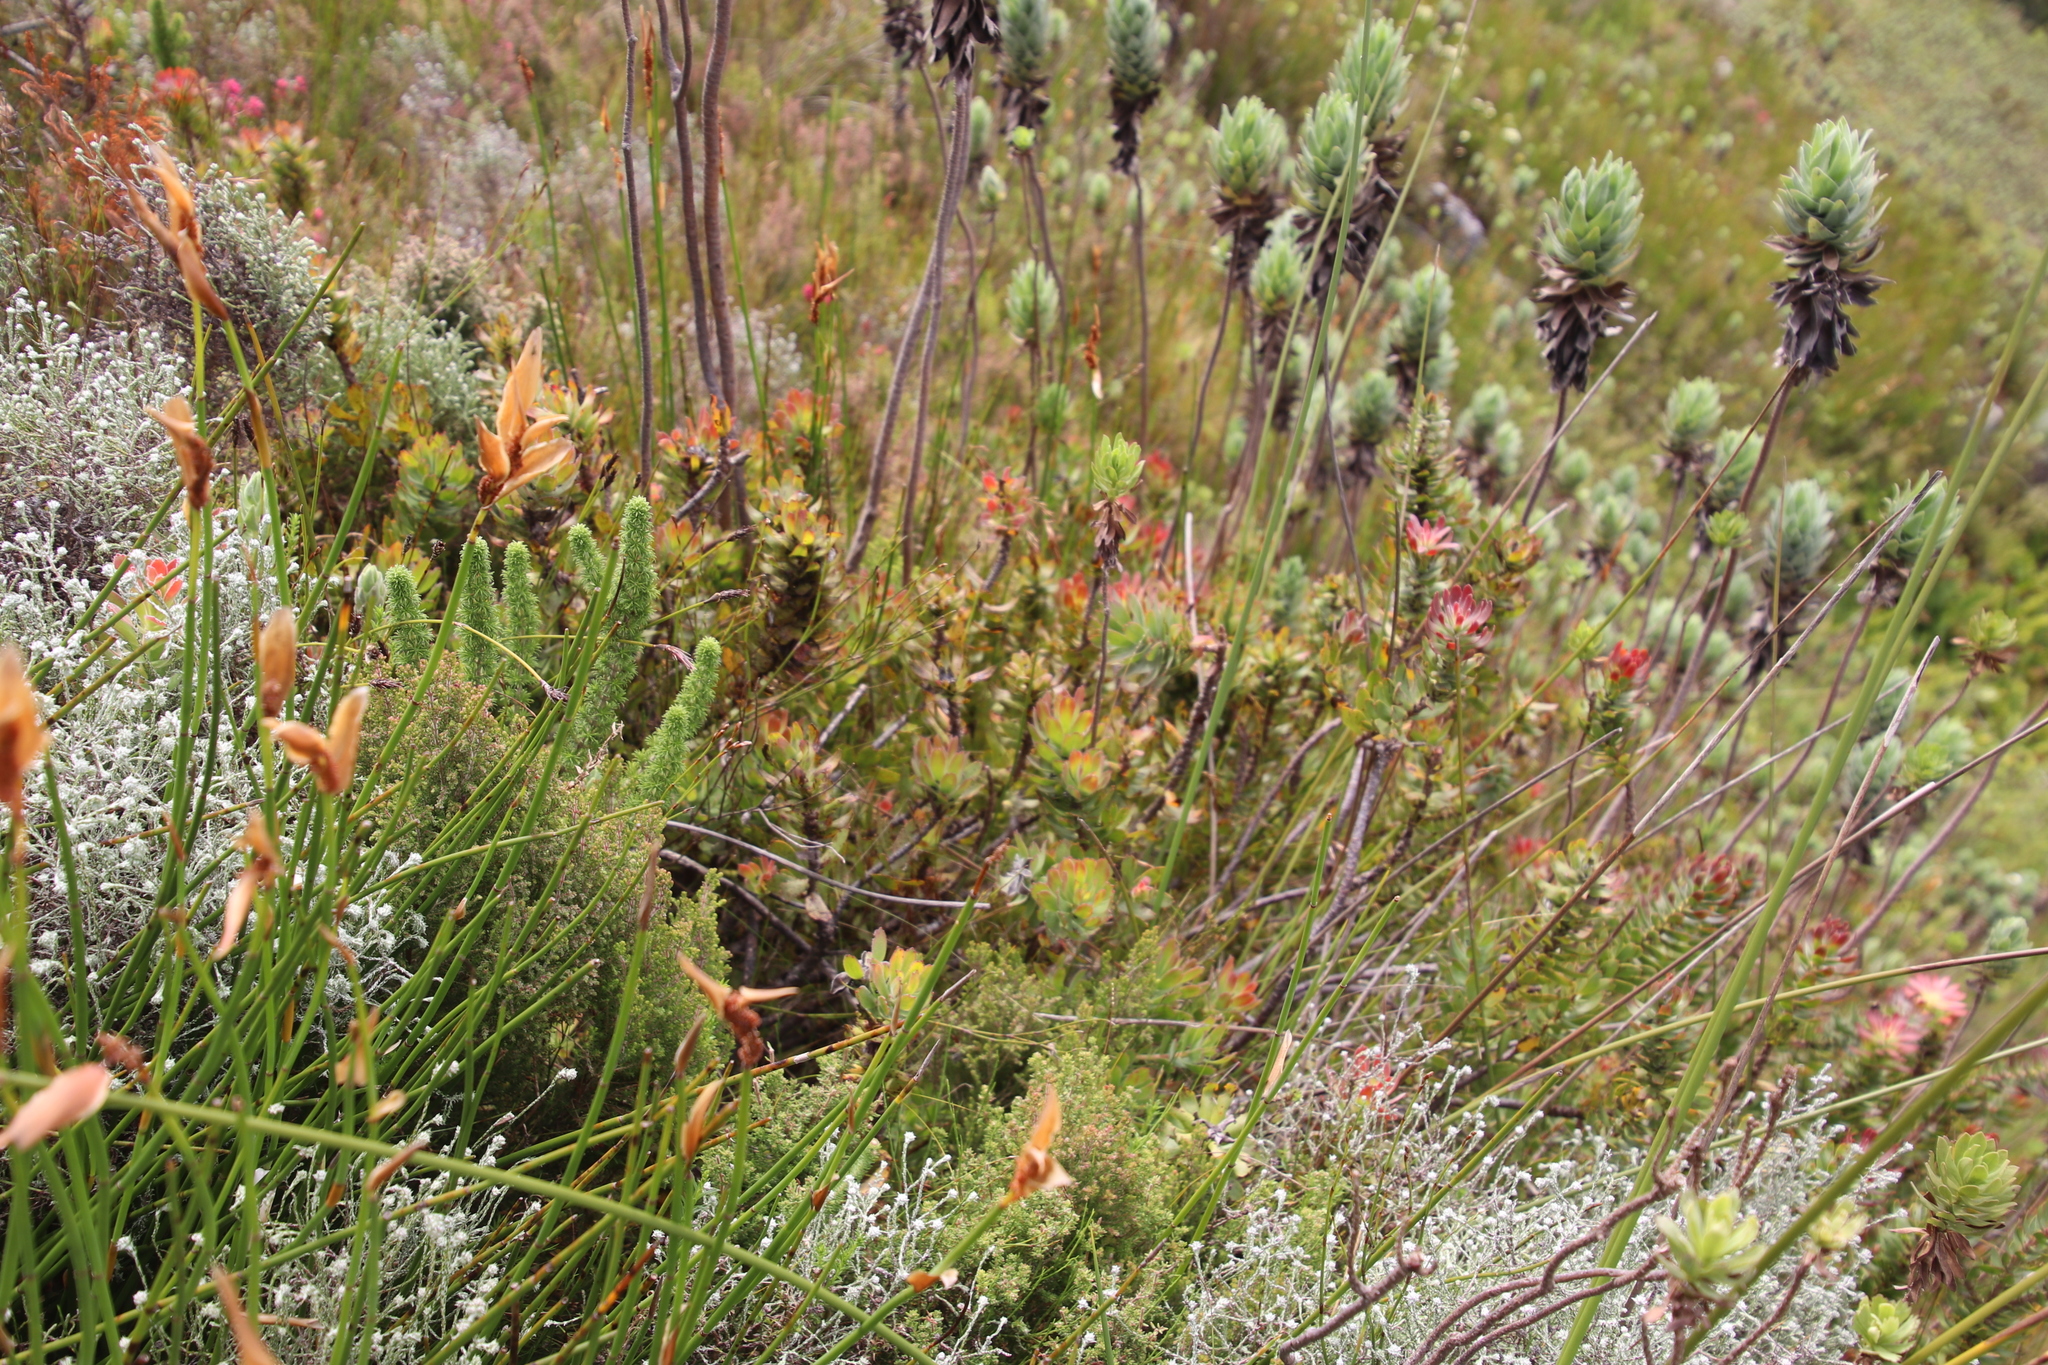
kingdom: Plantae
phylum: Tracheophyta
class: Magnoliopsida
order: Proteales
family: Proteaceae
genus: Mimetes
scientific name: Mimetes cucullatus
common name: Common pagoda
